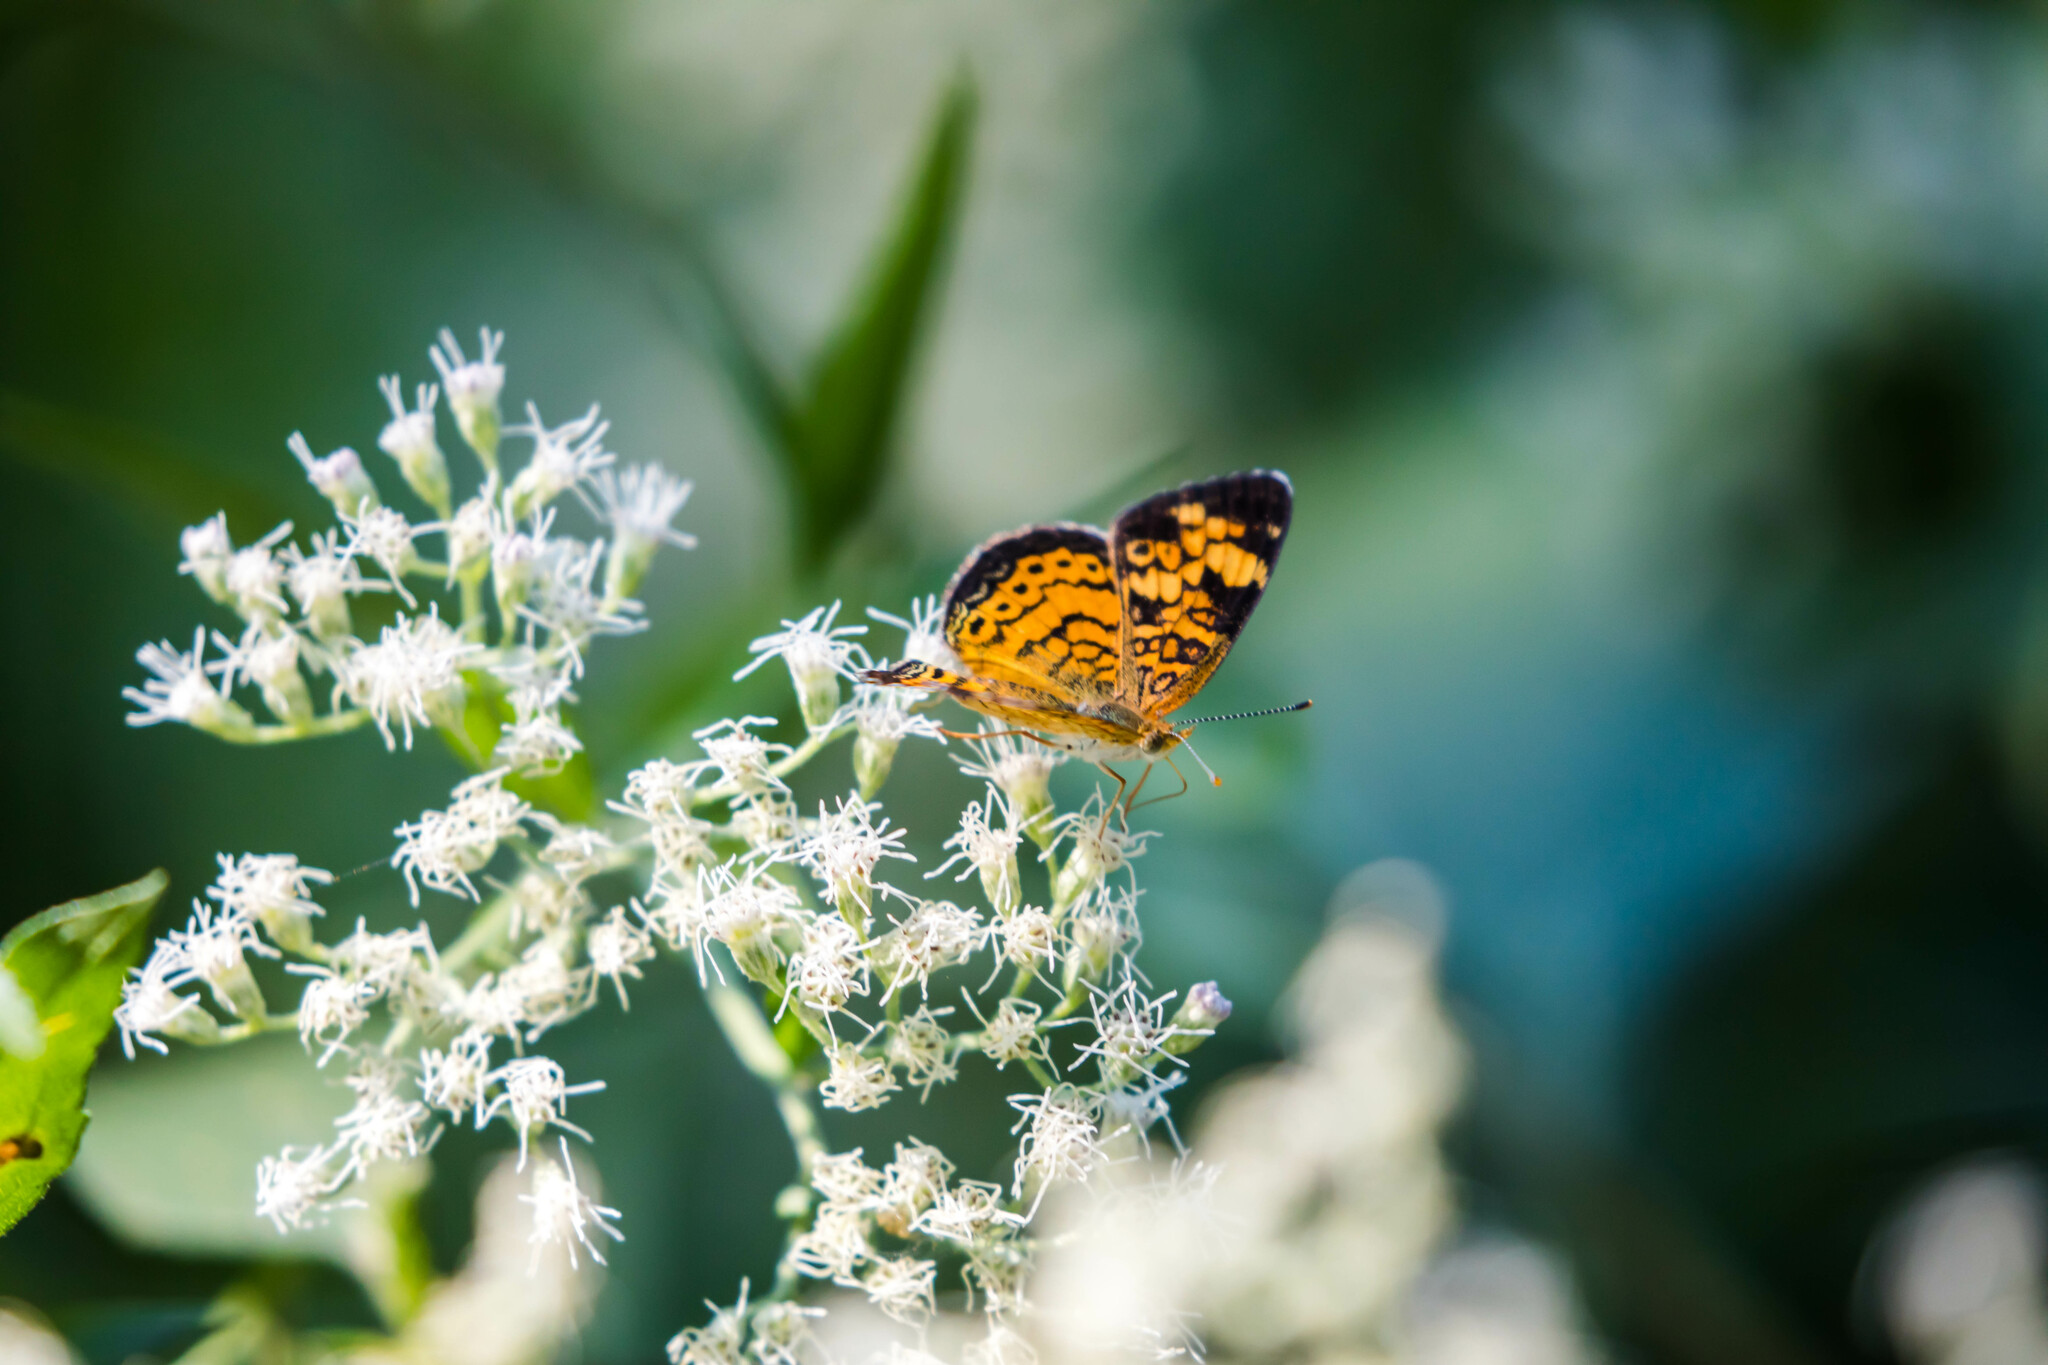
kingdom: Animalia
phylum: Arthropoda
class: Insecta
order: Lepidoptera
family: Nymphalidae
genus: Phyciodes
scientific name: Phyciodes tharos
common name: Pearl crescent
